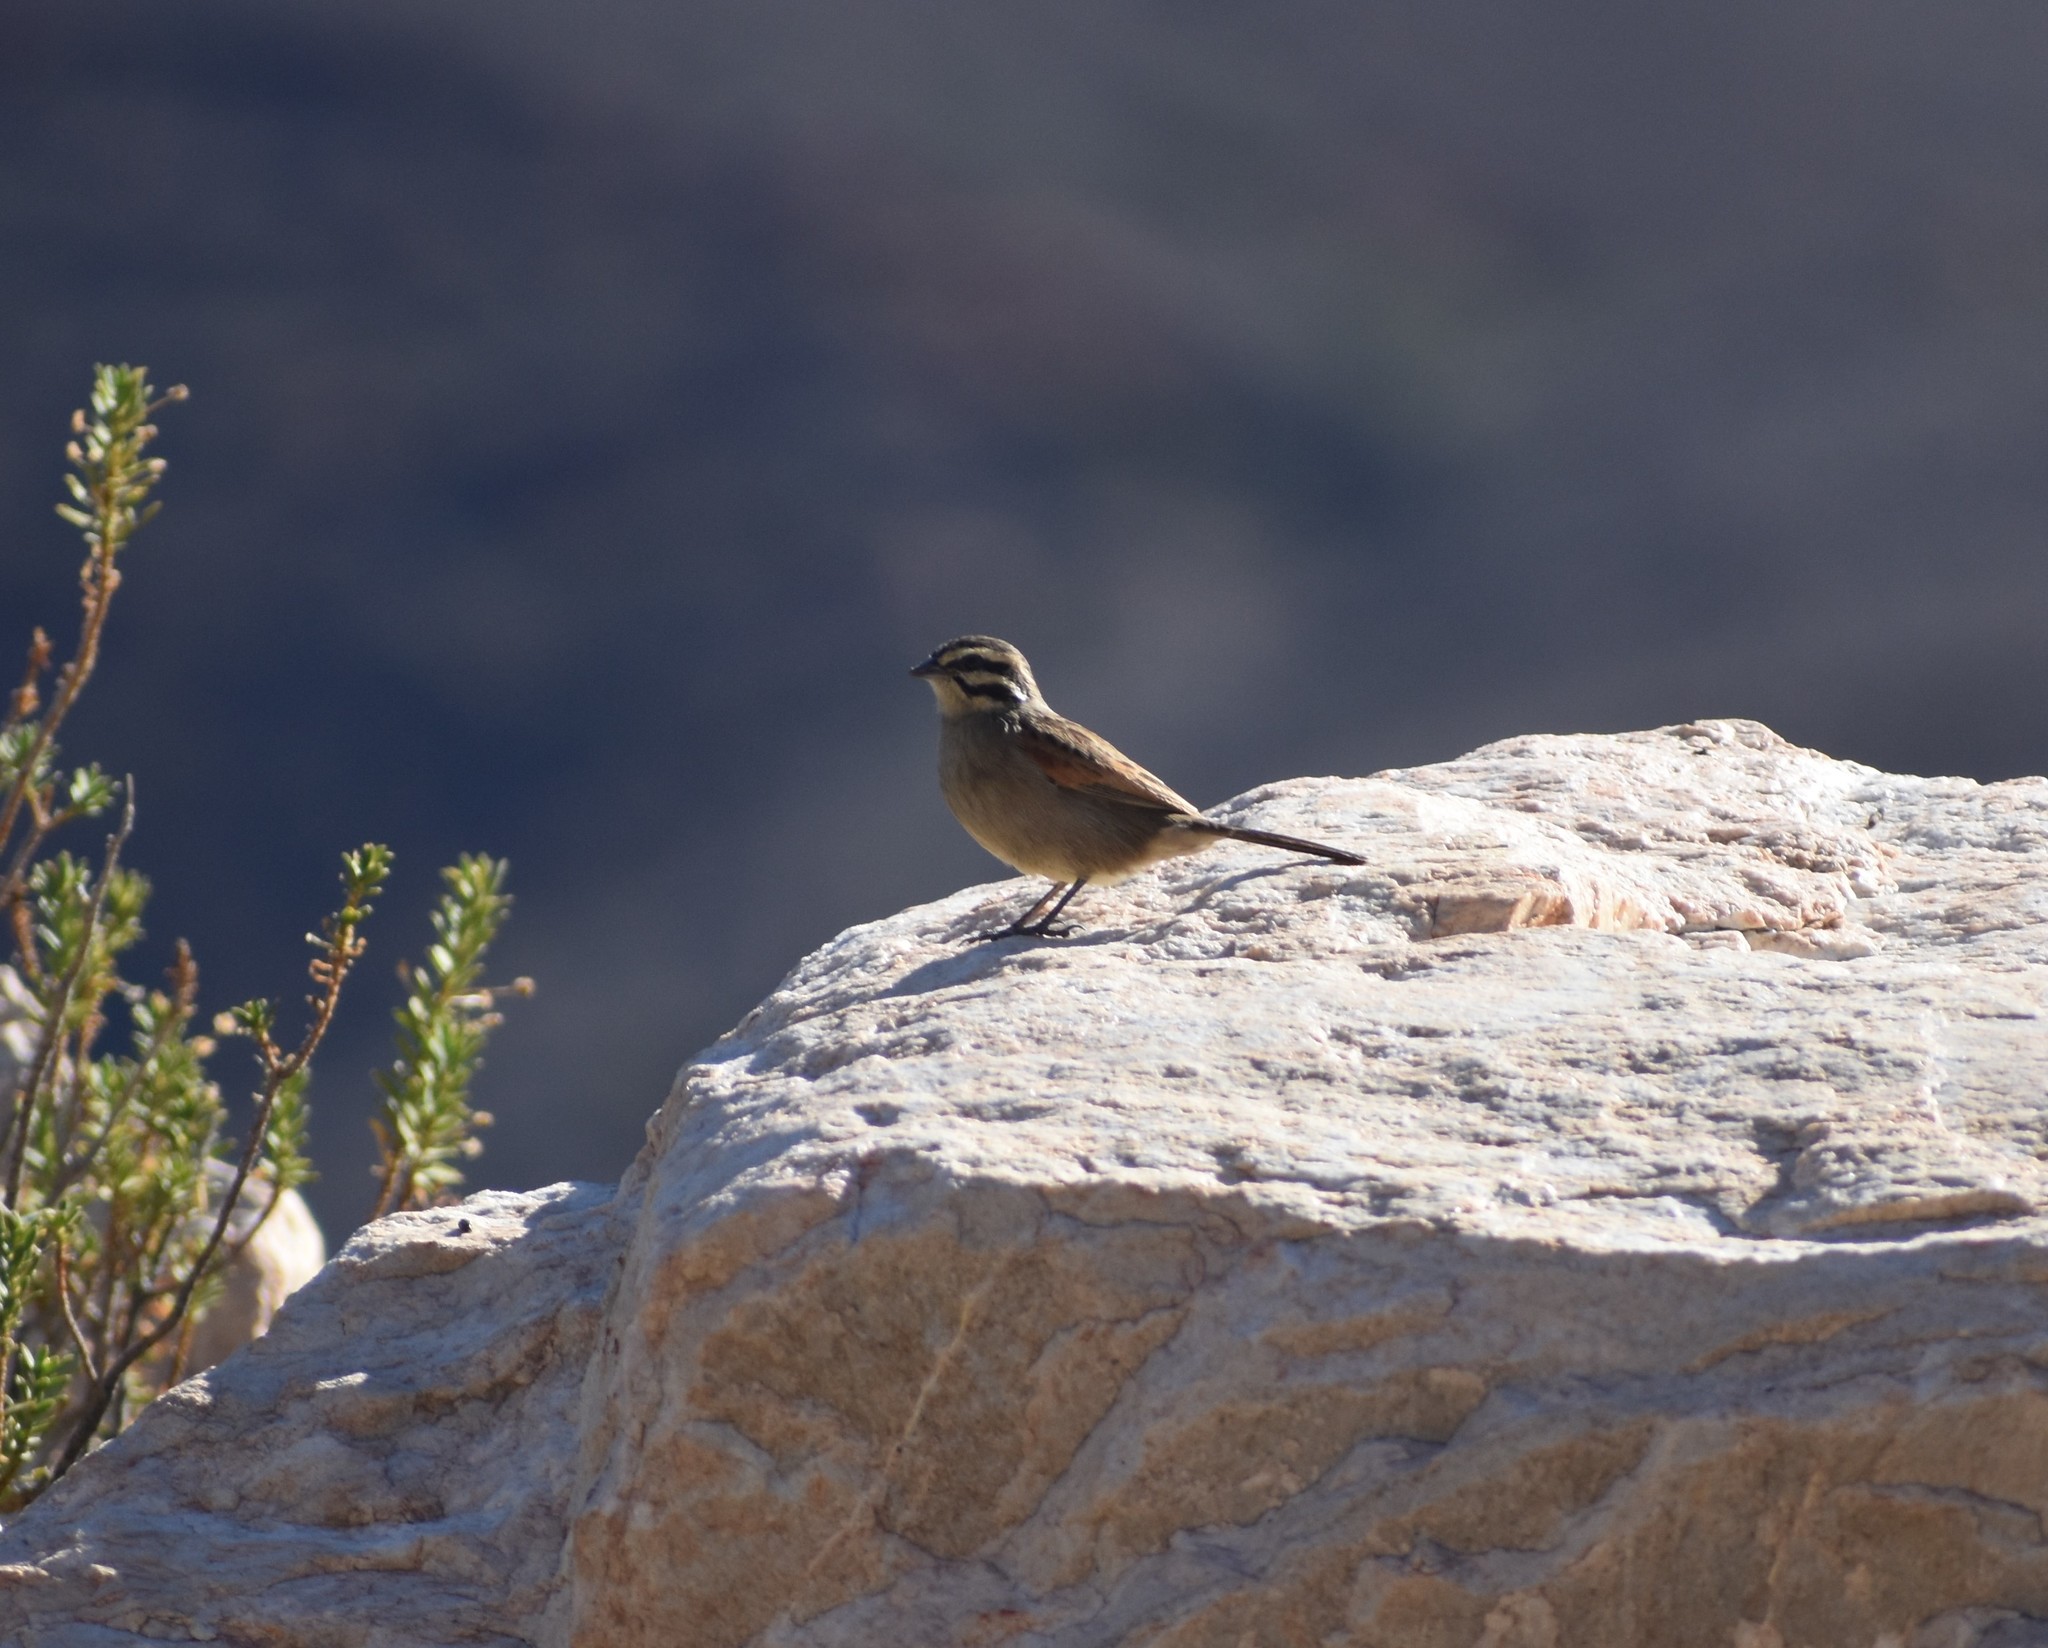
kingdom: Animalia
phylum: Chordata
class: Aves
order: Passeriformes
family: Emberizidae
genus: Emberiza
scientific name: Emberiza capensis
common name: Cape bunting
